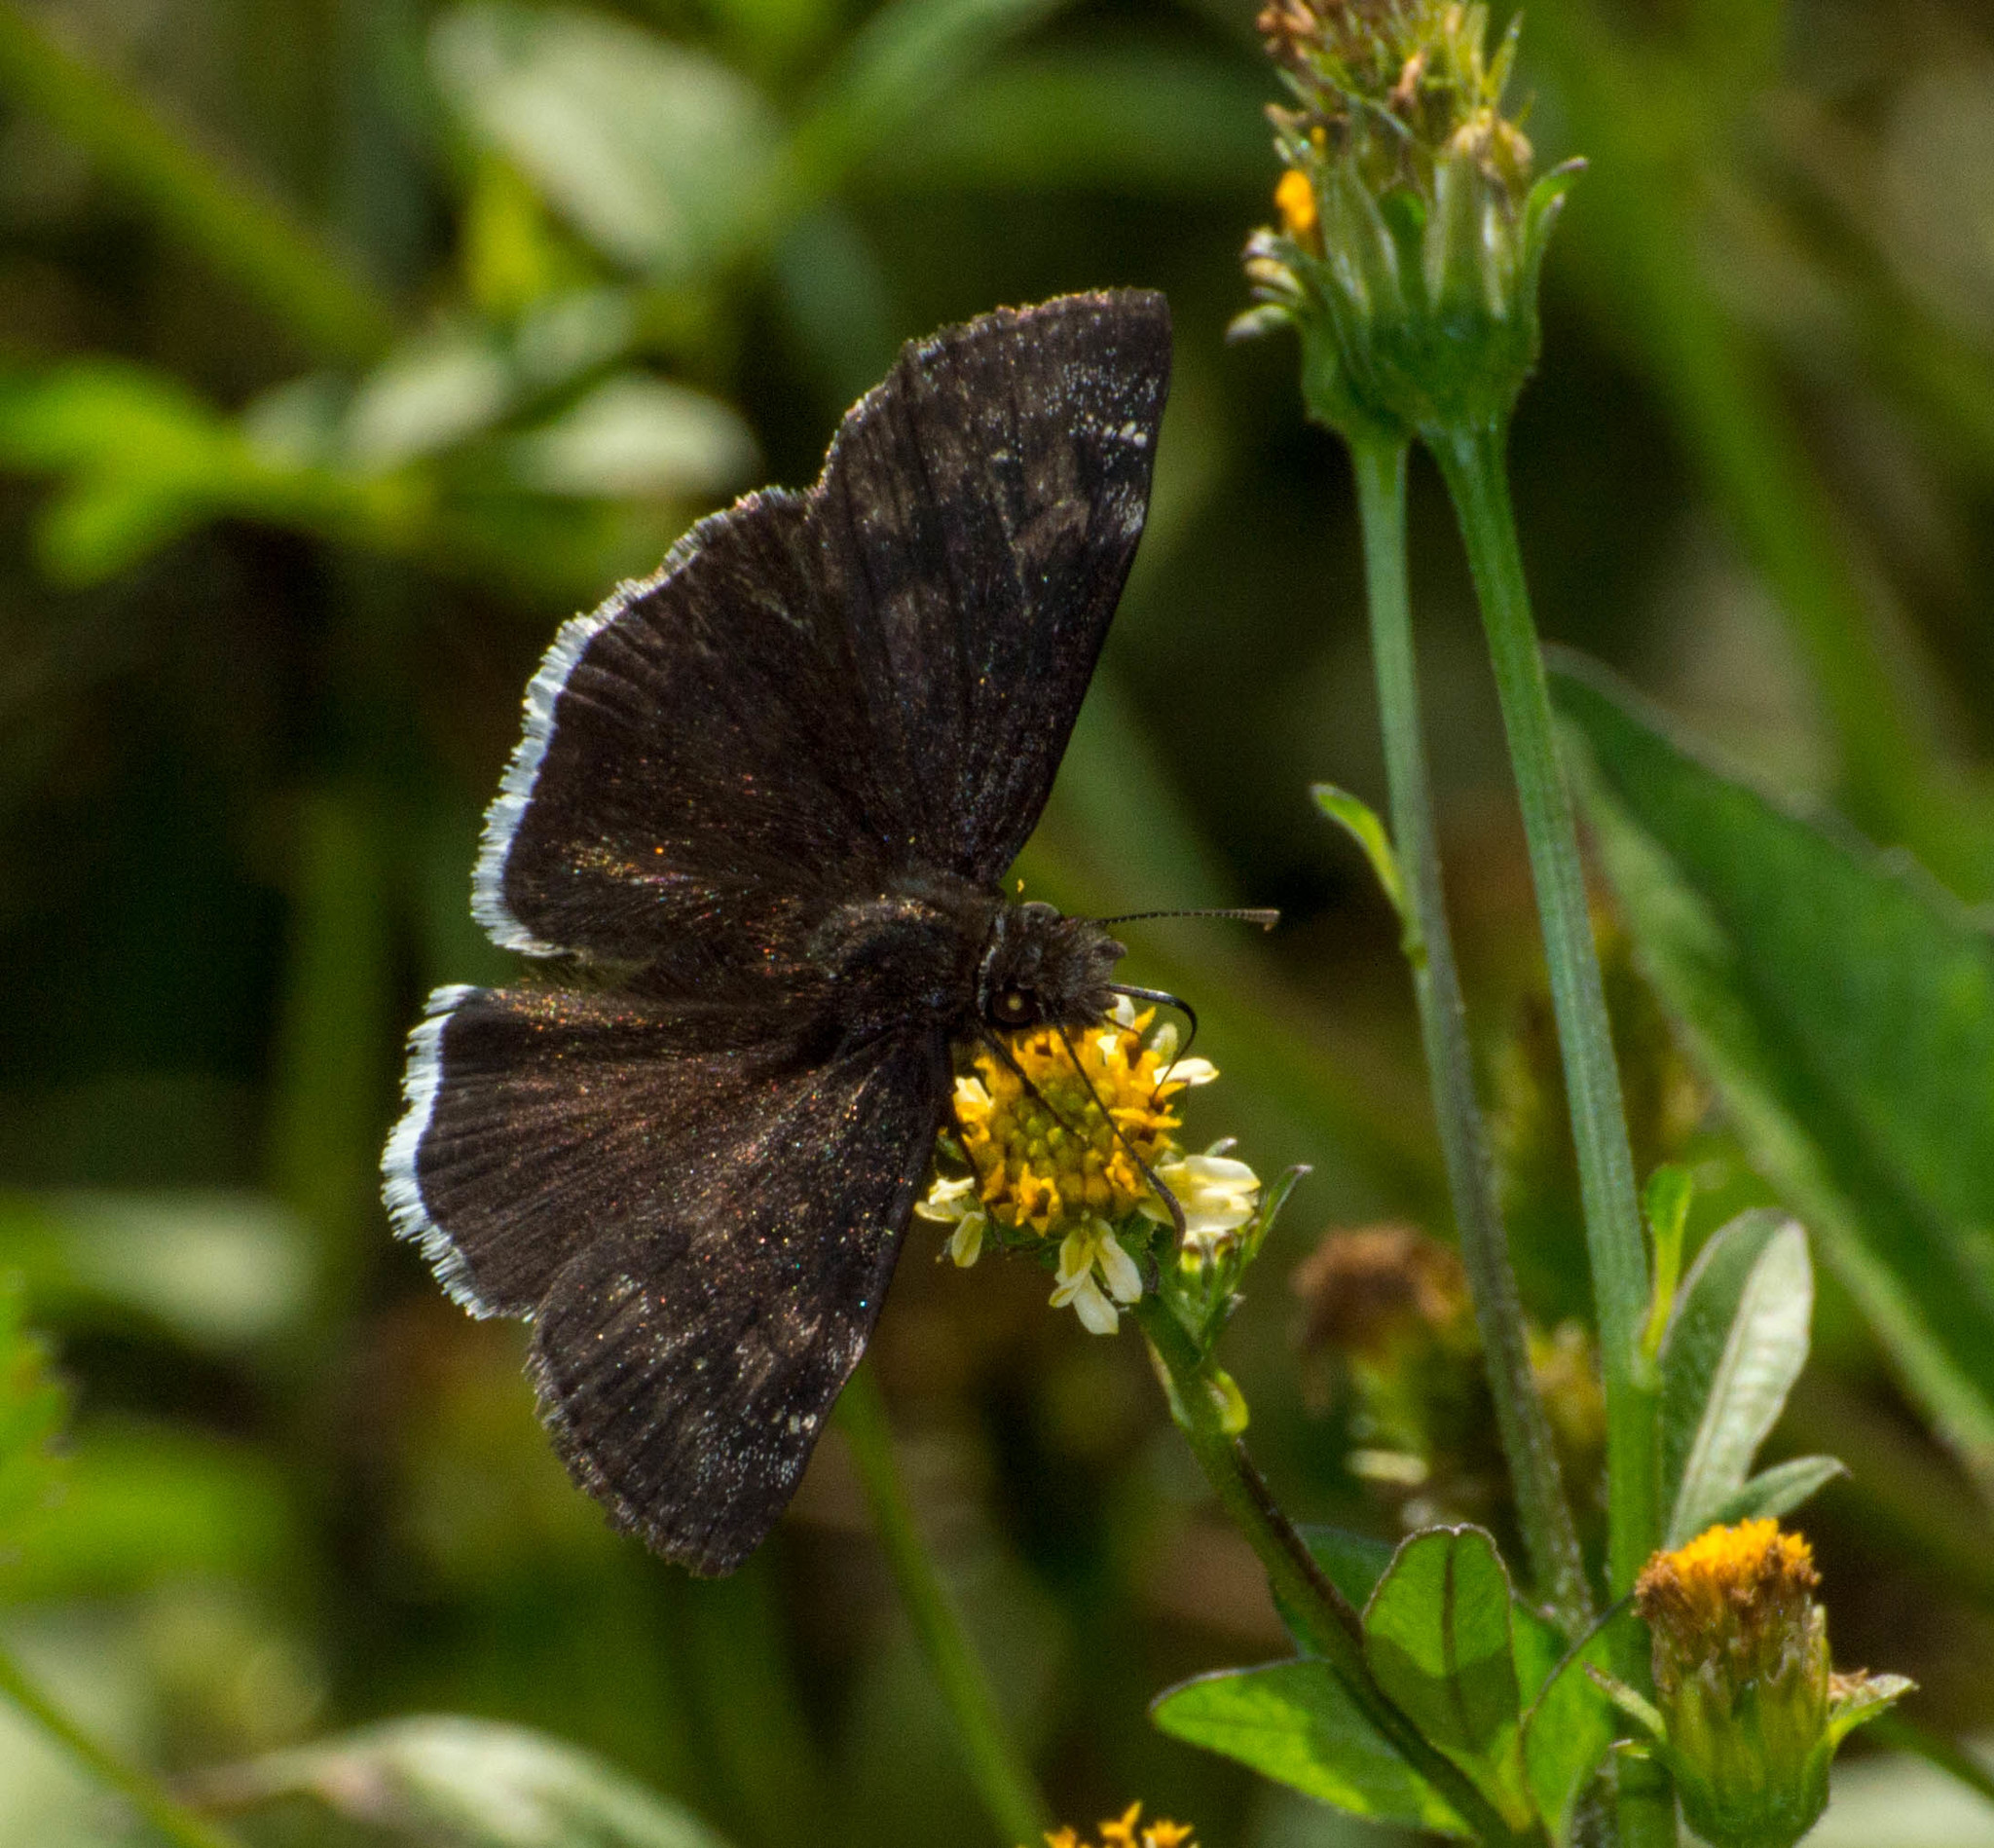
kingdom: Animalia
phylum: Arthropoda
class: Insecta
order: Lepidoptera
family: Hesperiidae
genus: Erynnis
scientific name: Erynnis funeralis
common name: Funereal duskywing
